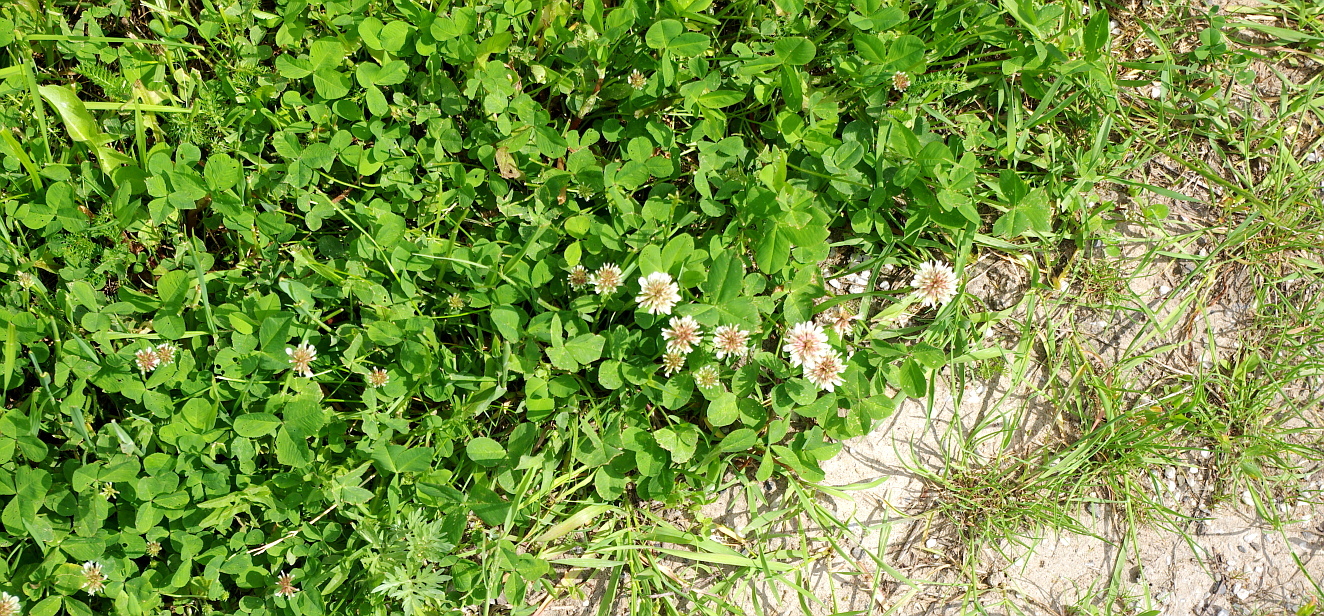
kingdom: Plantae
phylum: Tracheophyta
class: Magnoliopsida
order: Fabales
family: Fabaceae
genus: Trifolium
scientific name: Trifolium repens
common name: White clover
